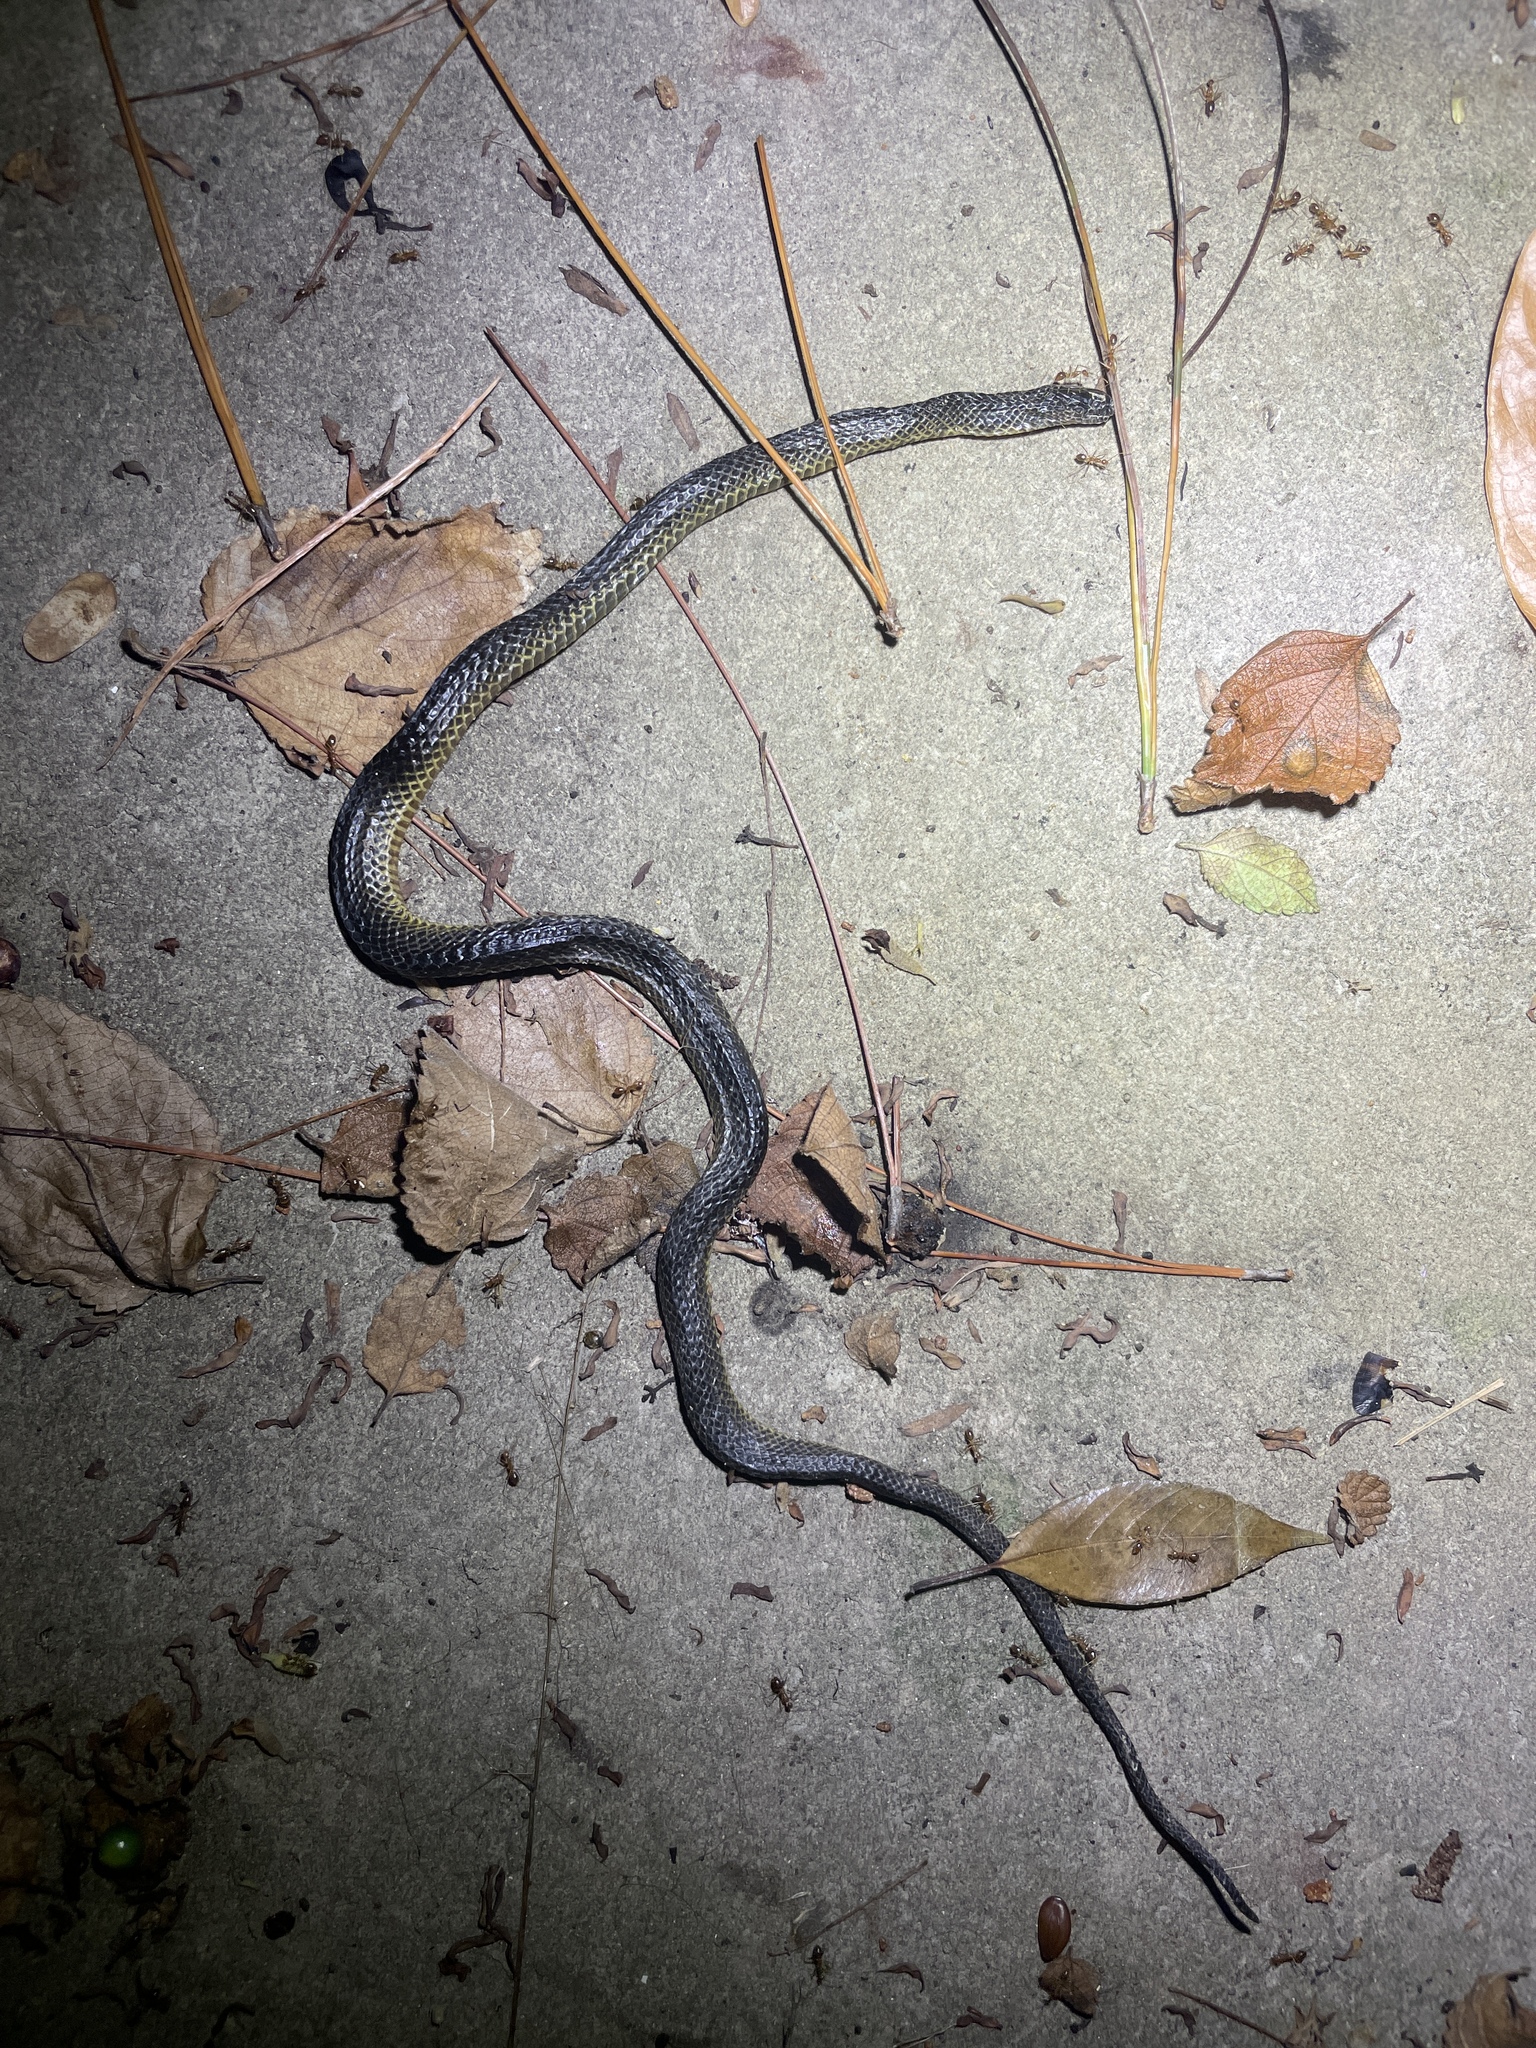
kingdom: Animalia
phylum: Chordata
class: Squamata
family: Colubridae
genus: Opisthotropis
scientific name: Opisthotropis andersonii
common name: Anderson's mountain keelback
